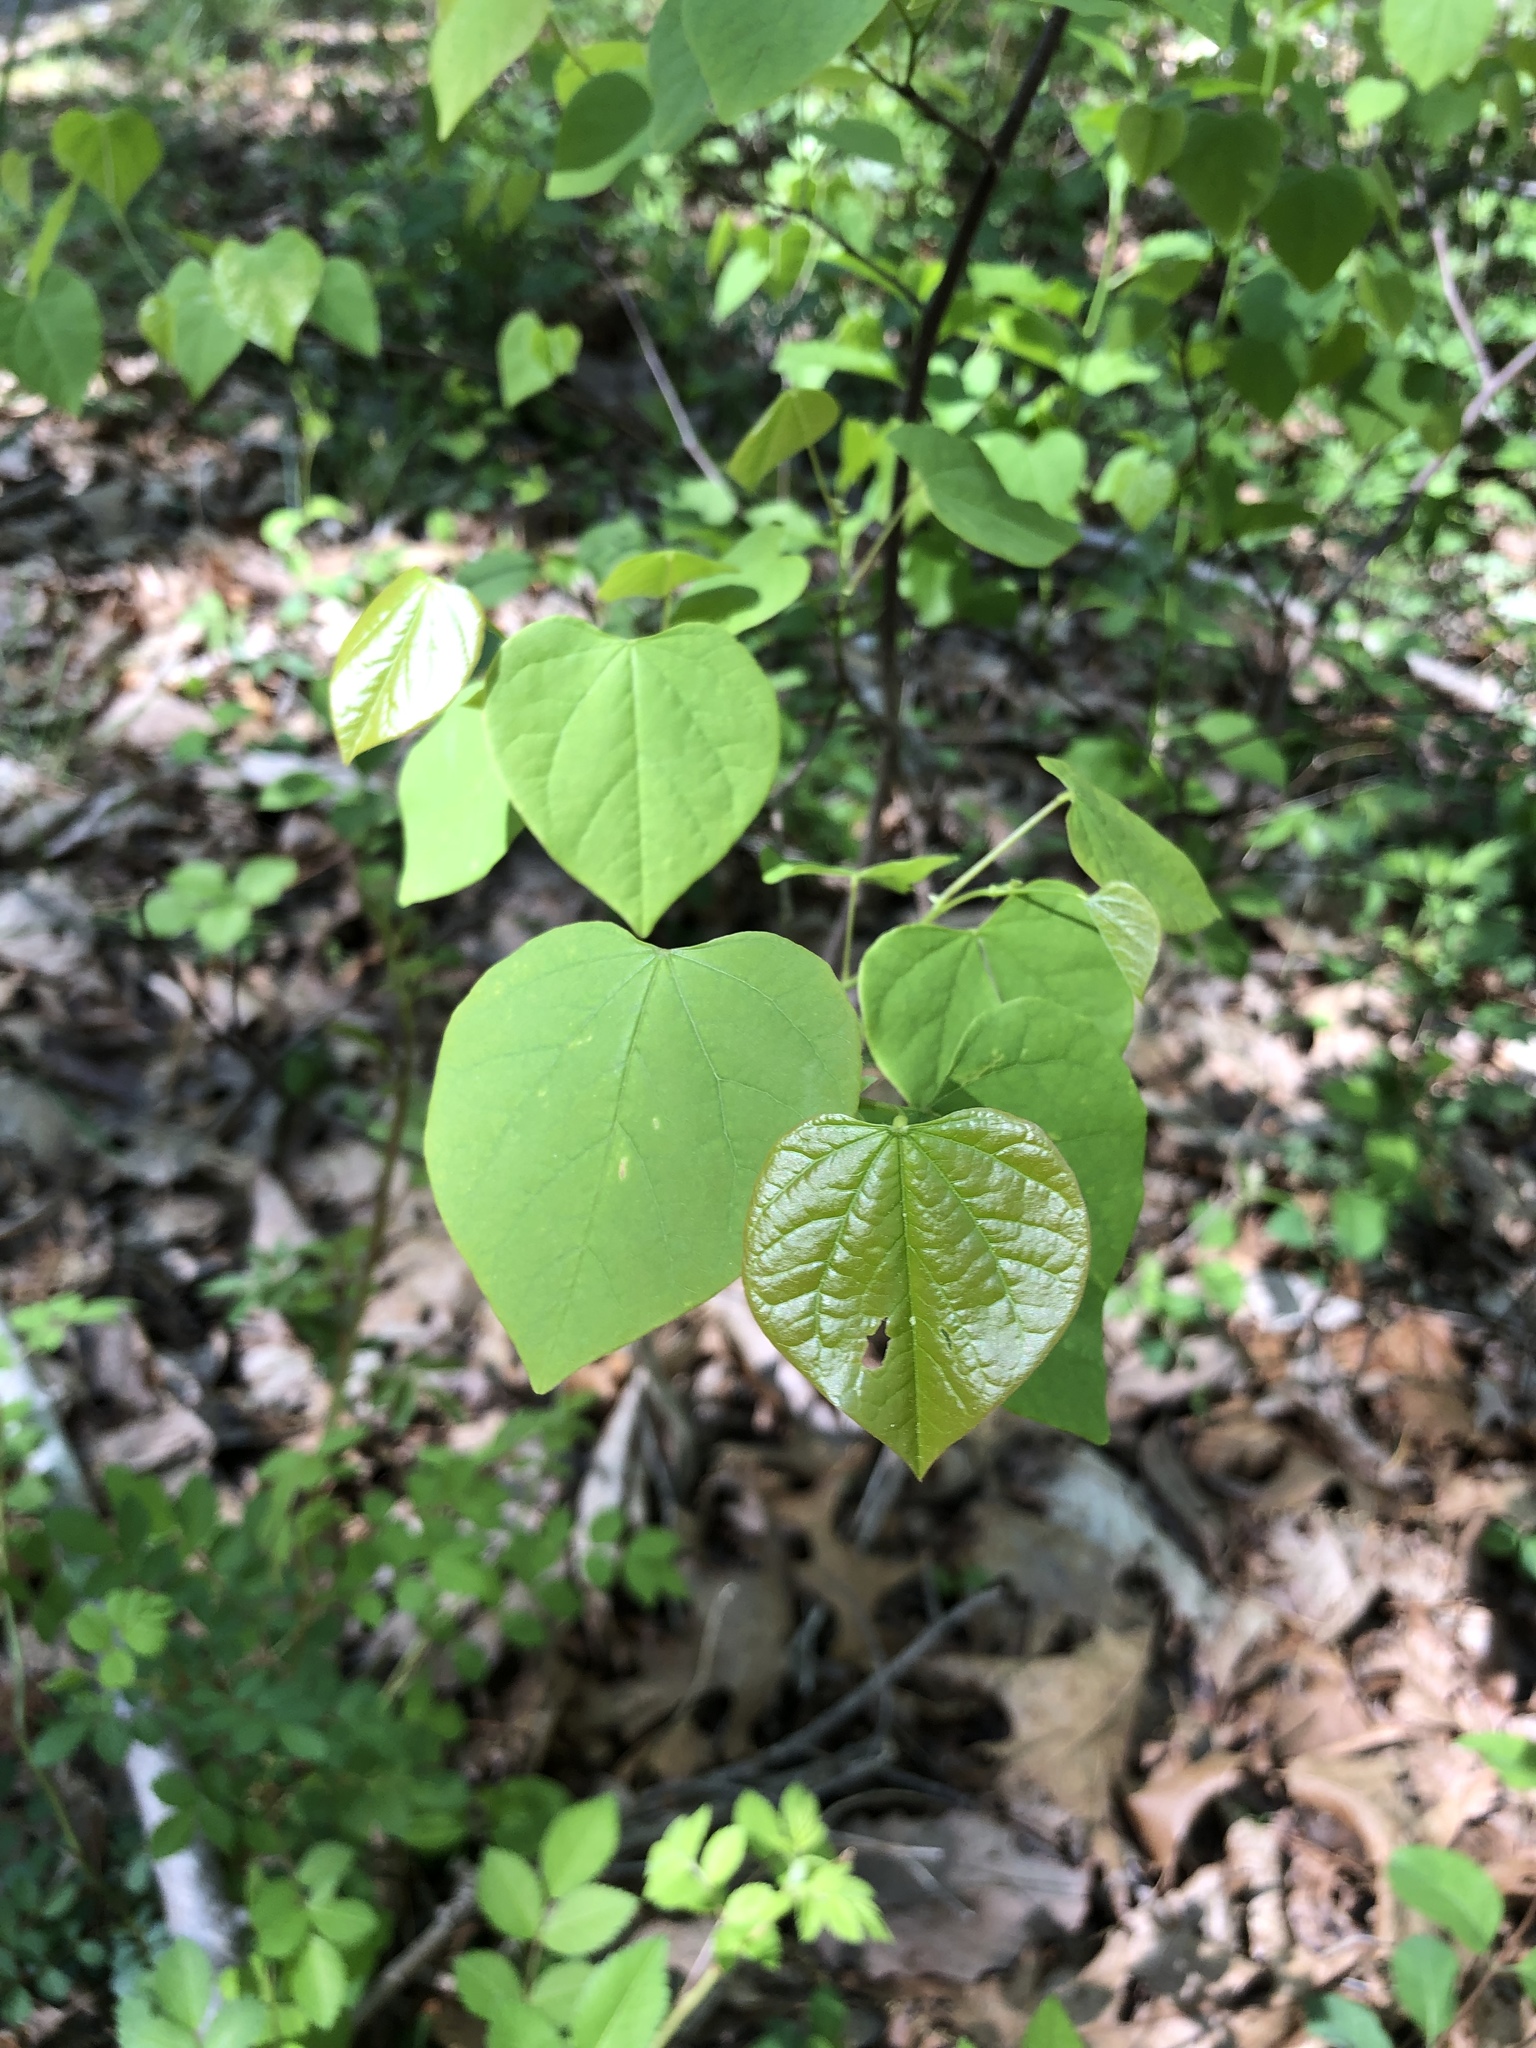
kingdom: Plantae
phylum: Tracheophyta
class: Magnoliopsida
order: Fabales
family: Fabaceae
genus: Cercis
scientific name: Cercis canadensis
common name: Eastern redbud
